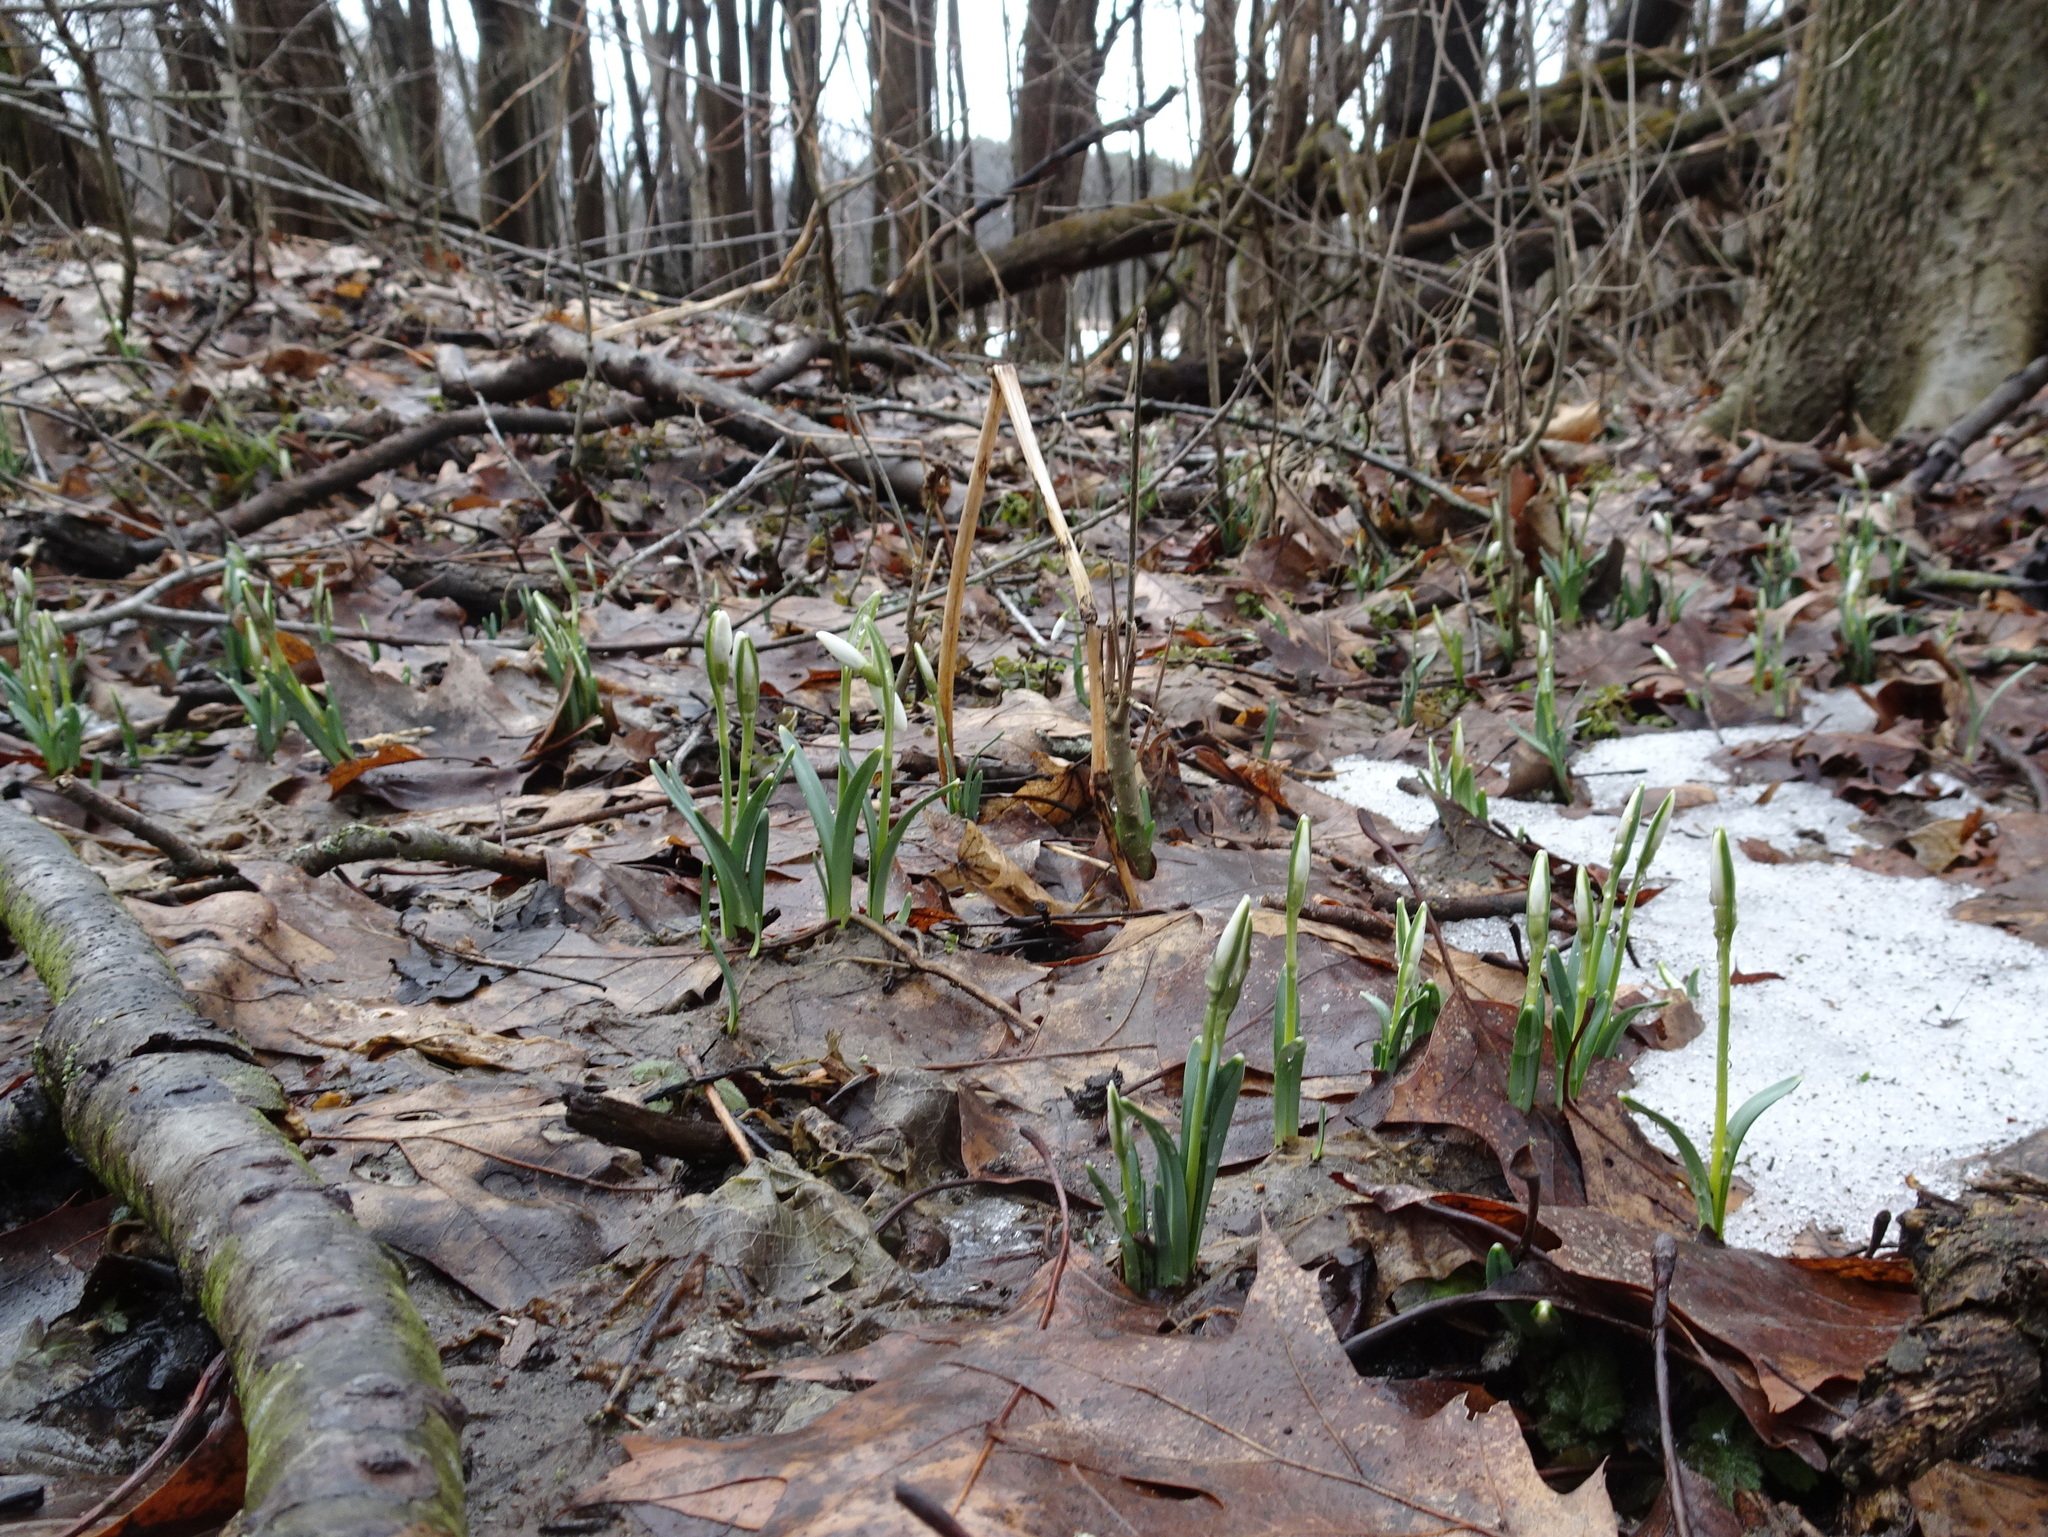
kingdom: Plantae
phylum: Tracheophyta
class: Liliopsida
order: Asparagales
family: Amaryllidaceae
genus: Galanthus
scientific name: Galanthus nivalis
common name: Snowdrop
